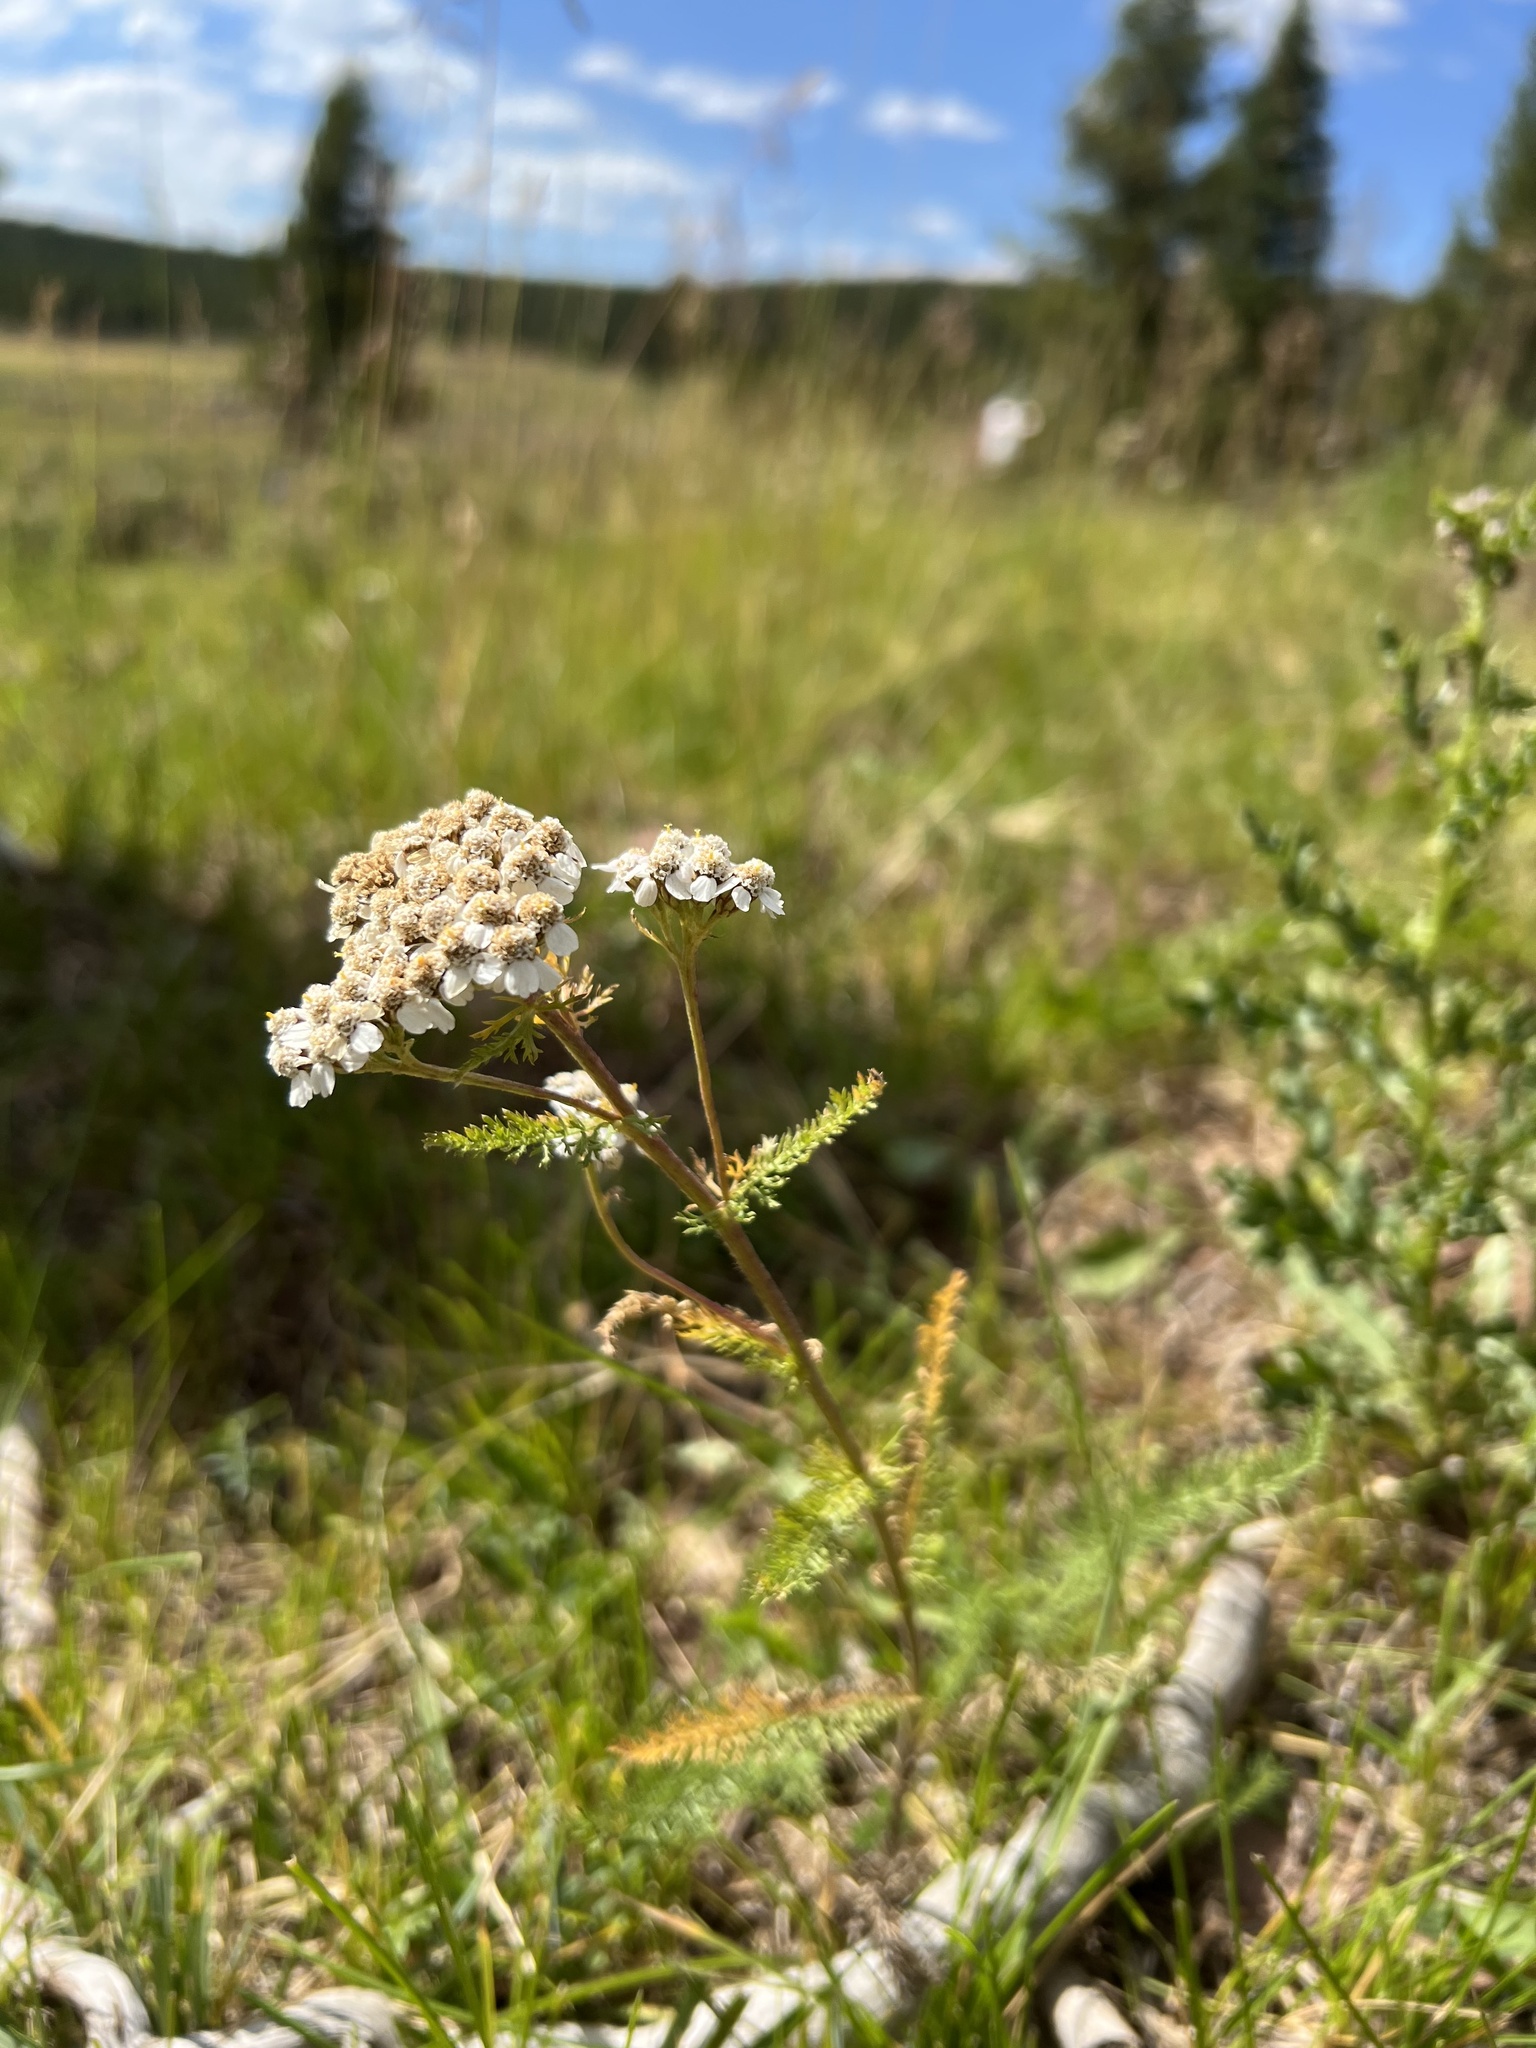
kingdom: Plantae
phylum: Tracheophyta
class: Magnoliopsida
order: Asterales
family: Asteraceae
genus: Achillea
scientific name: Achillea millefolium
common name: Yarrow
